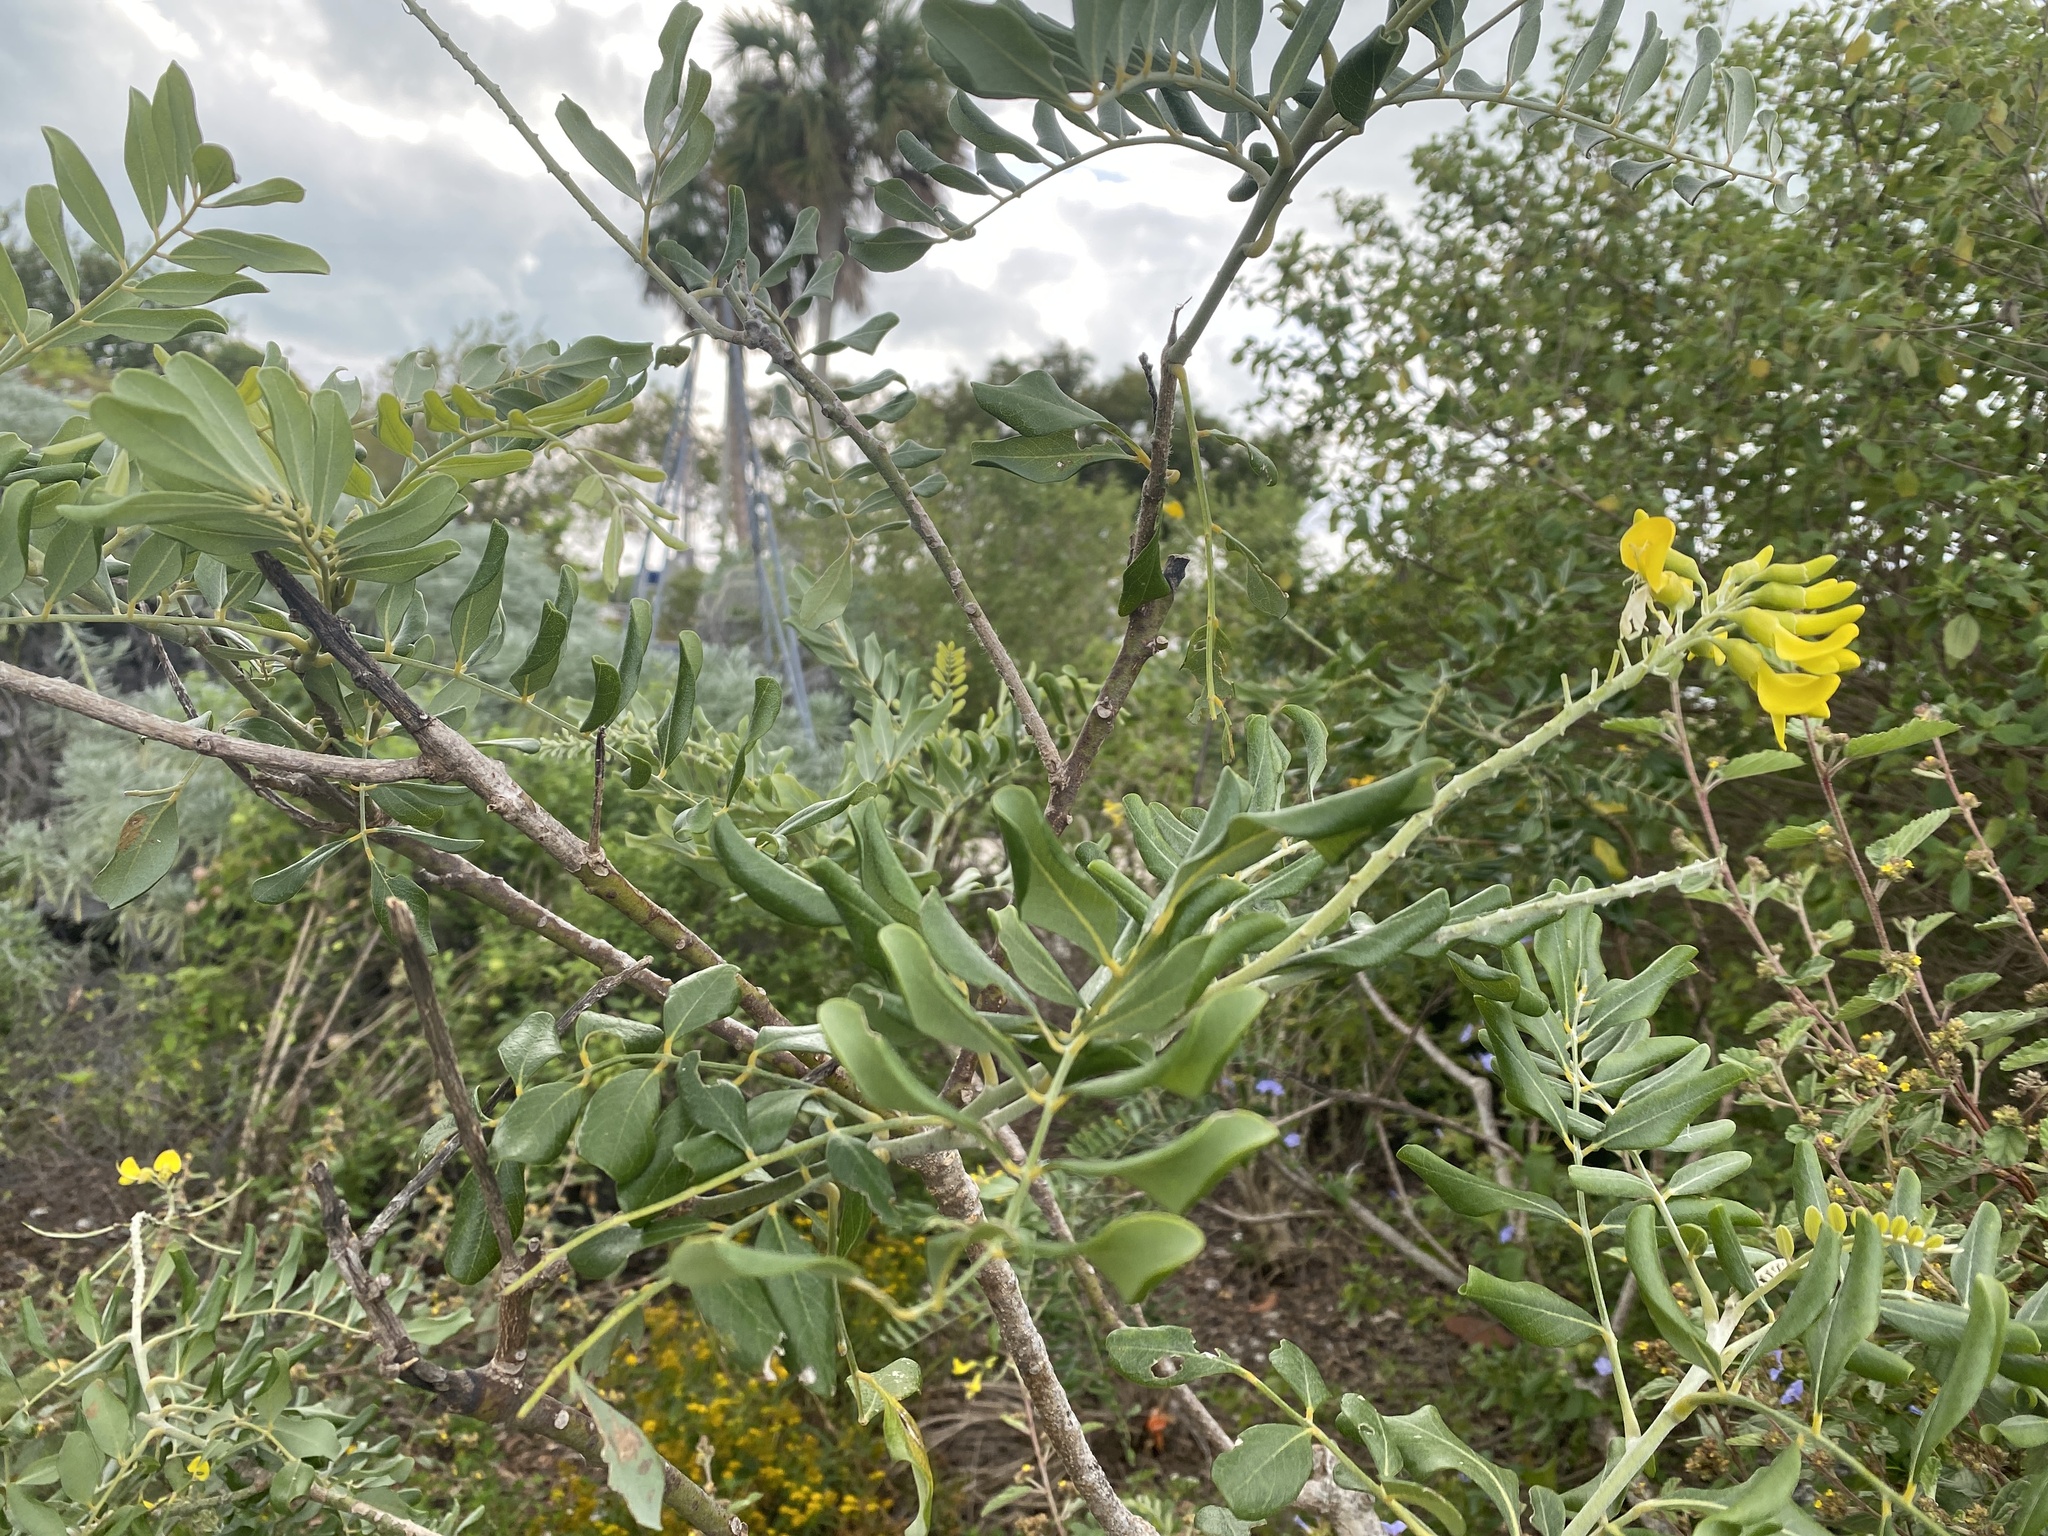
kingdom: Plantae
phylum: Tracheophyta
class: Magnoliopsida
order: Fabales
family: Fabaceae
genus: Sophora
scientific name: Sophora tomentosa
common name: Yellow necklacepod
